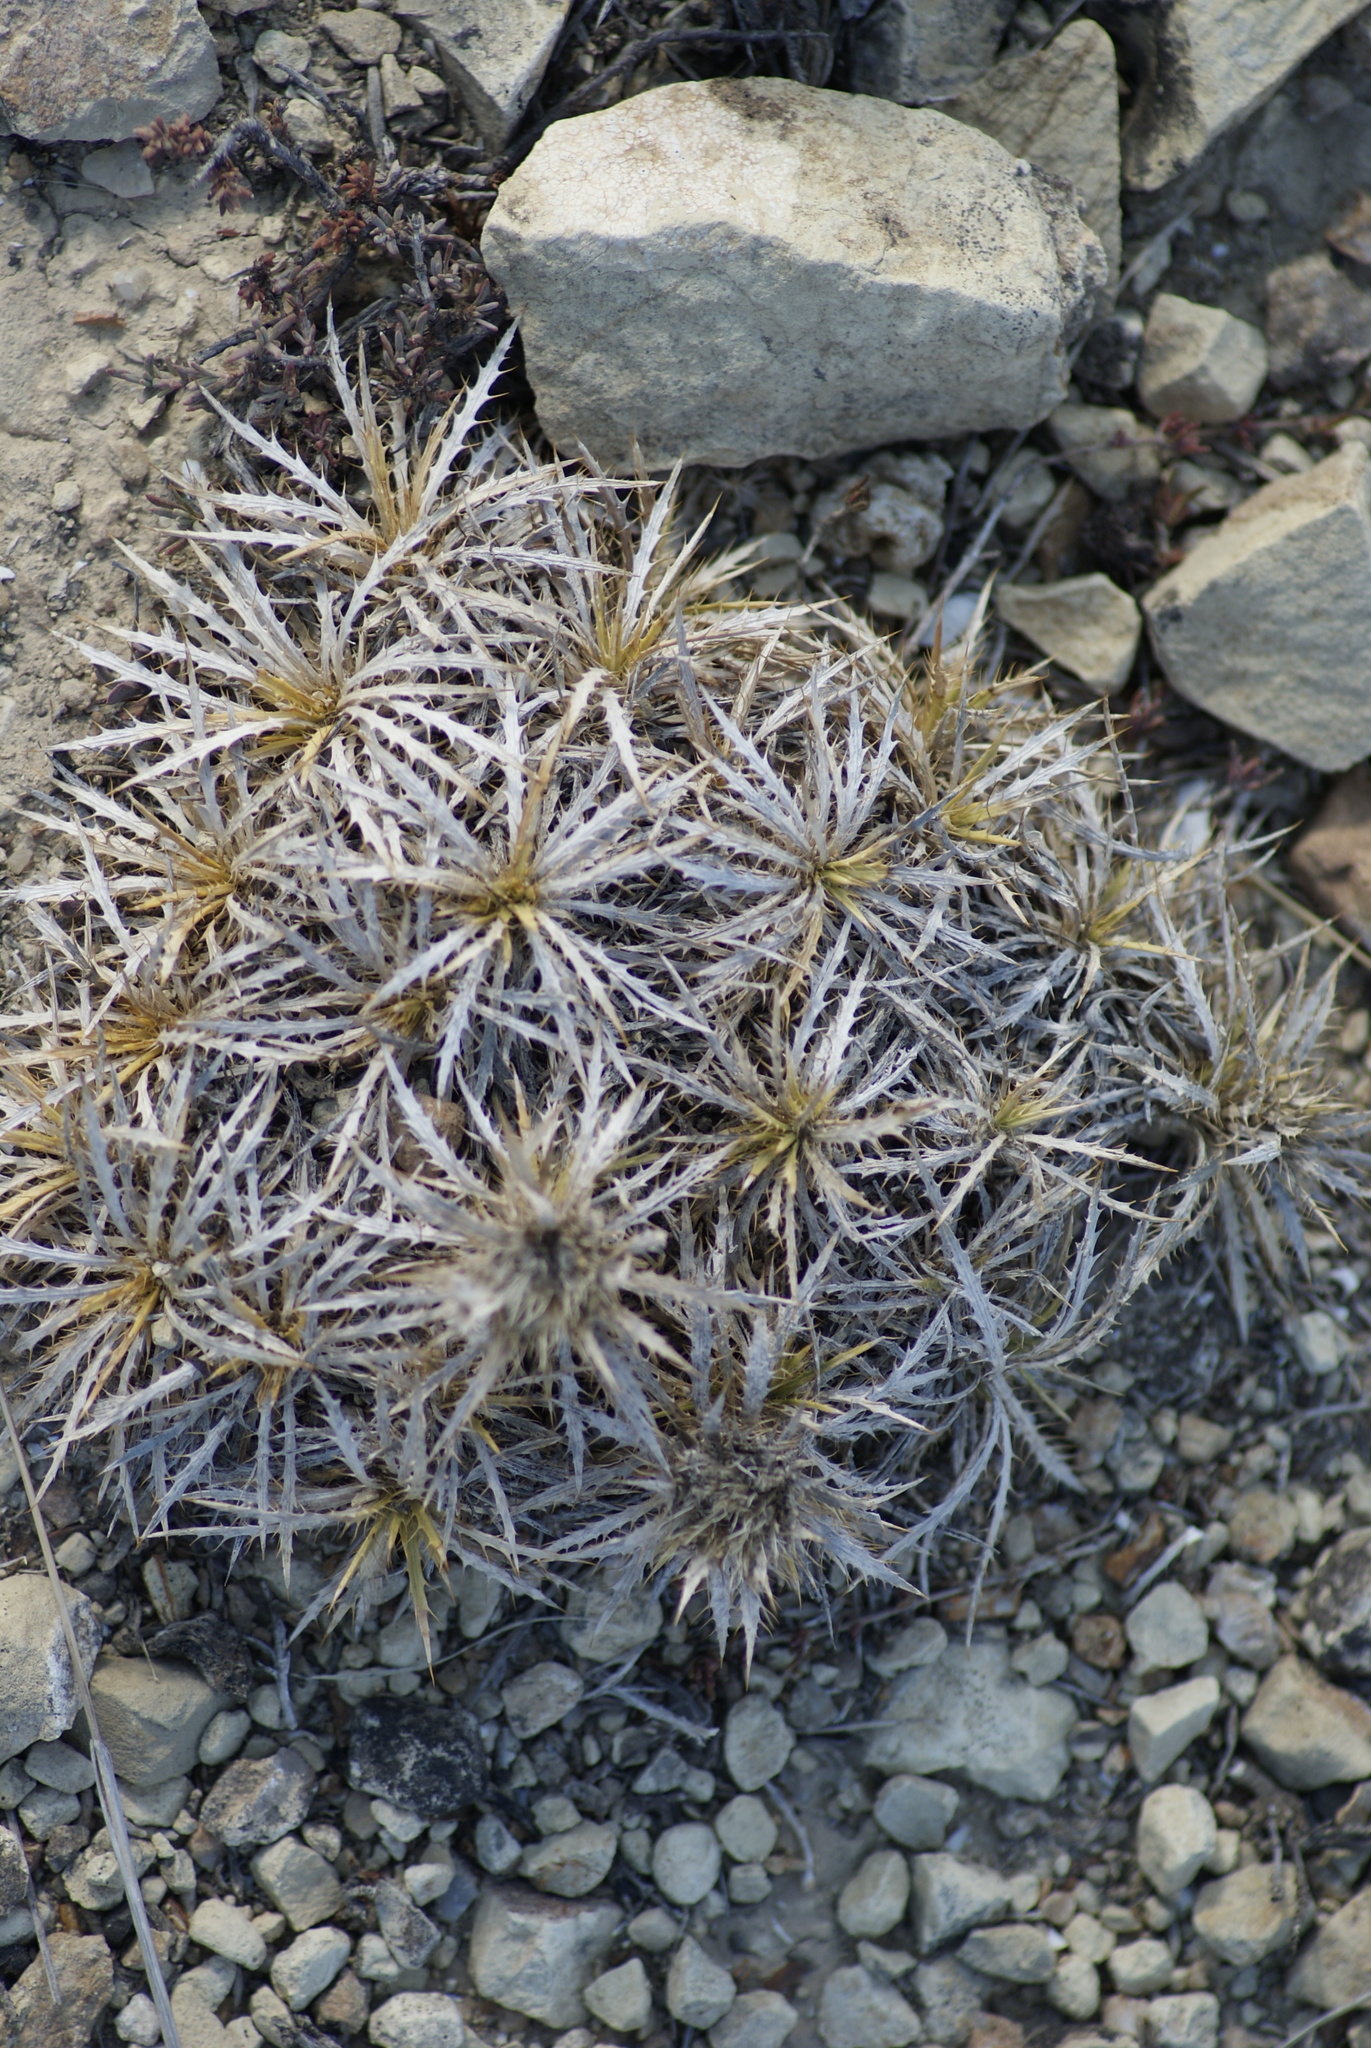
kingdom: Plantae
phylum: Tracheophyta
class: Magnoliopsida
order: Asterales
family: Asteraceae
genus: Atractylis
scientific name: Atractylis caespitosa
